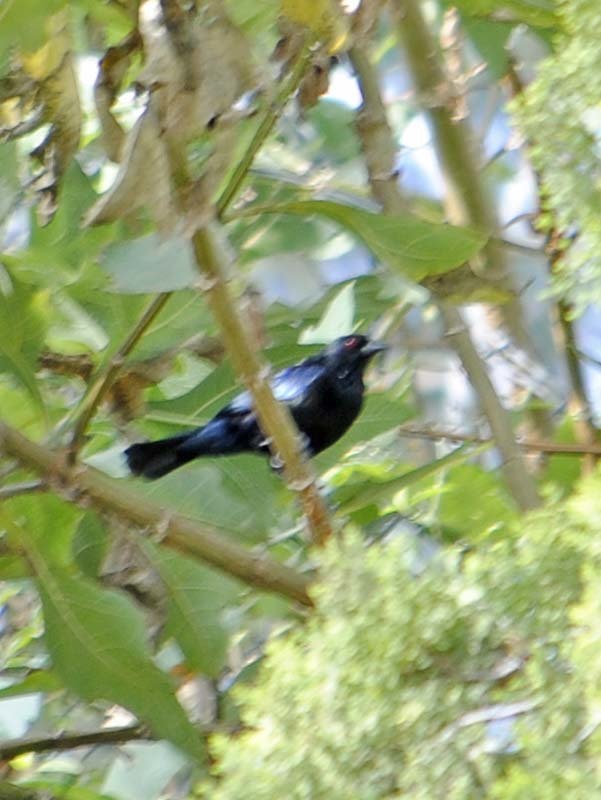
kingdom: Animalia
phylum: Chordata
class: Aves
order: Passeriformes
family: Icteridae
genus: Molothrus
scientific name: Molothrus aeneus
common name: Bronzed cowbird
